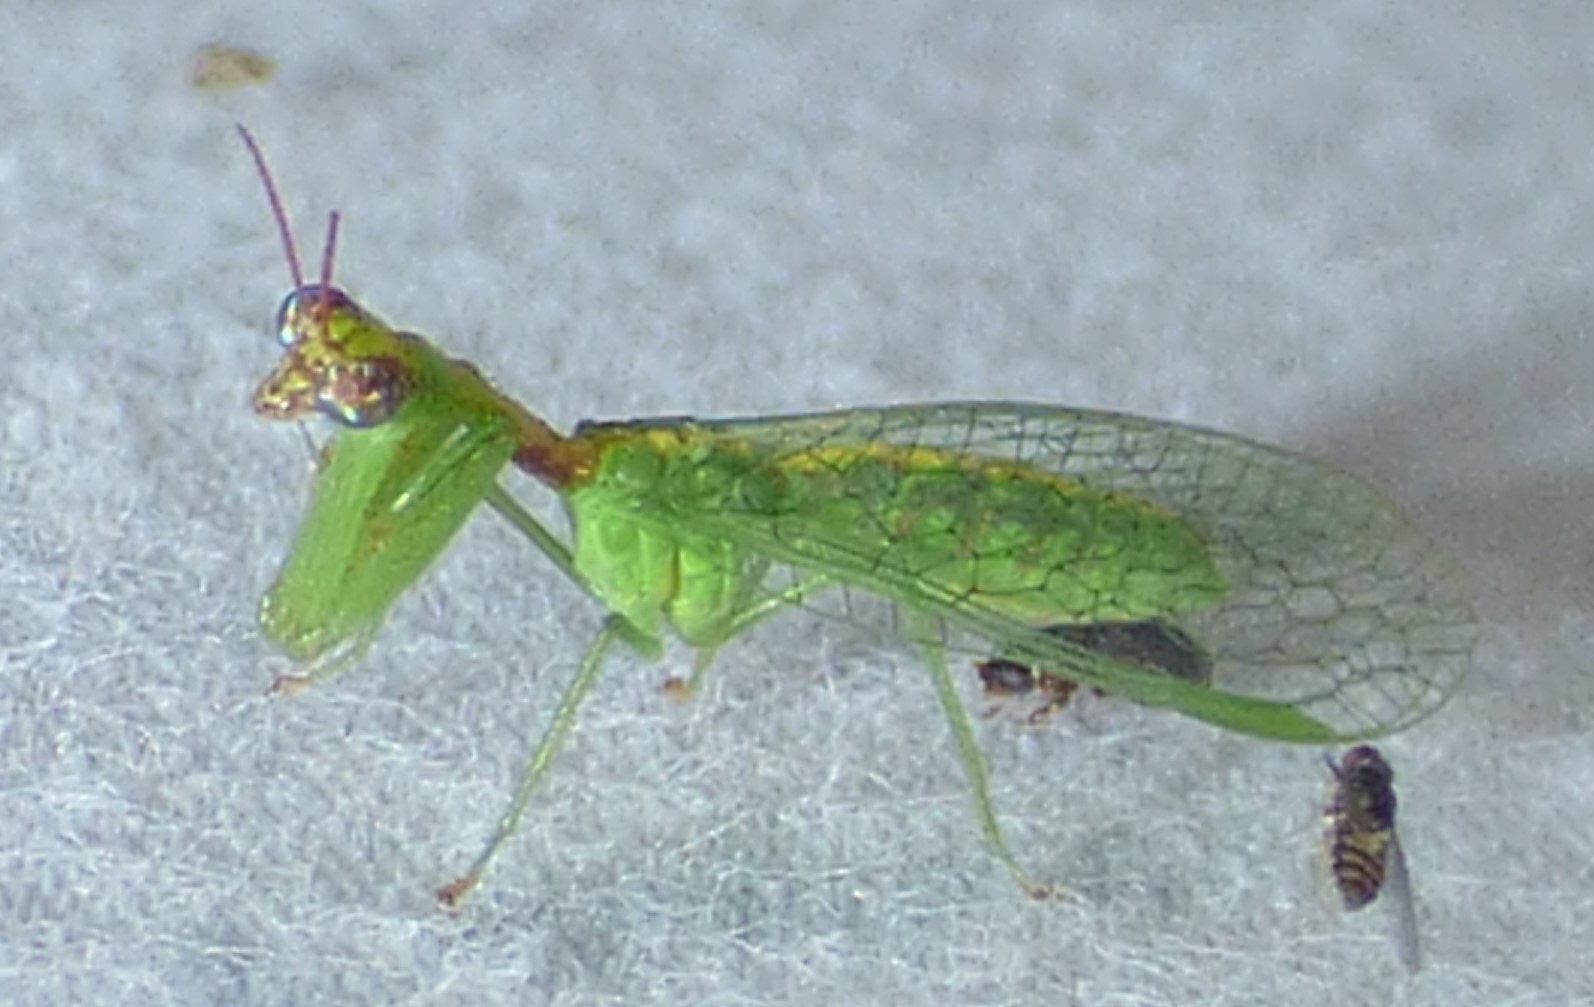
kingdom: Animalia
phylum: Arthropoda
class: Insecta
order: Neuroptera
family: Mantispidae
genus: Zeugomantispa
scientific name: Zeugomantispa minuta
